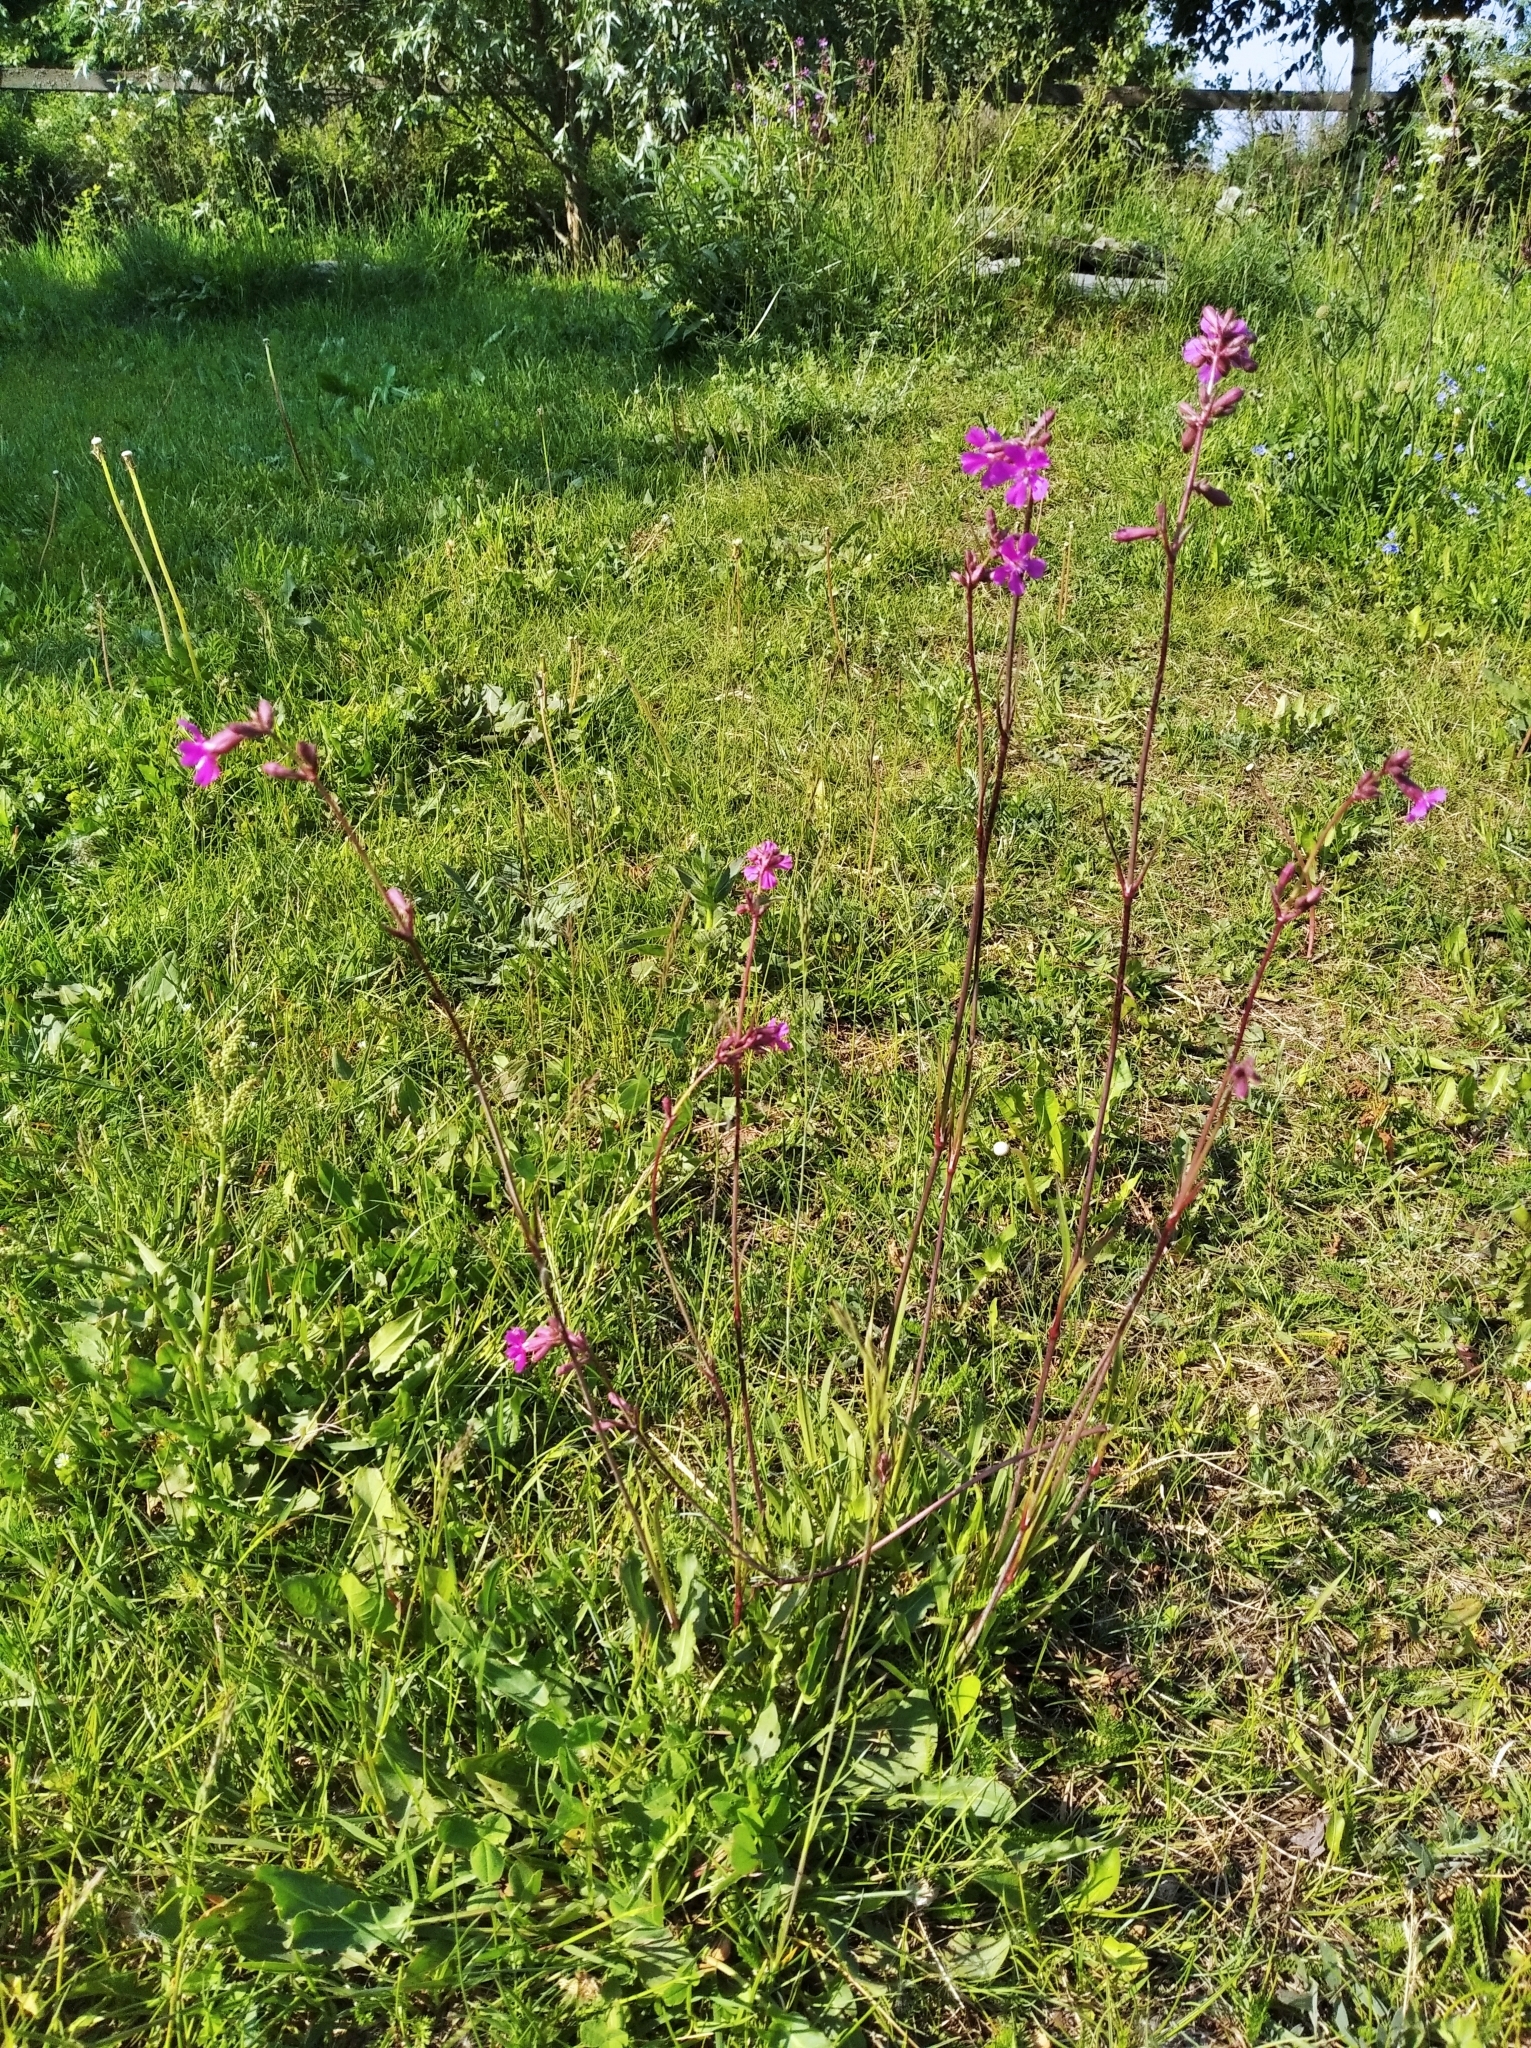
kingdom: Plantae
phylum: Tracheophyta
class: Magnoliopsida
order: Caryophyllales
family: Caryophyllaceae
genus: Viscaria
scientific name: Viscaria vulgaris
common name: Clammy campion
